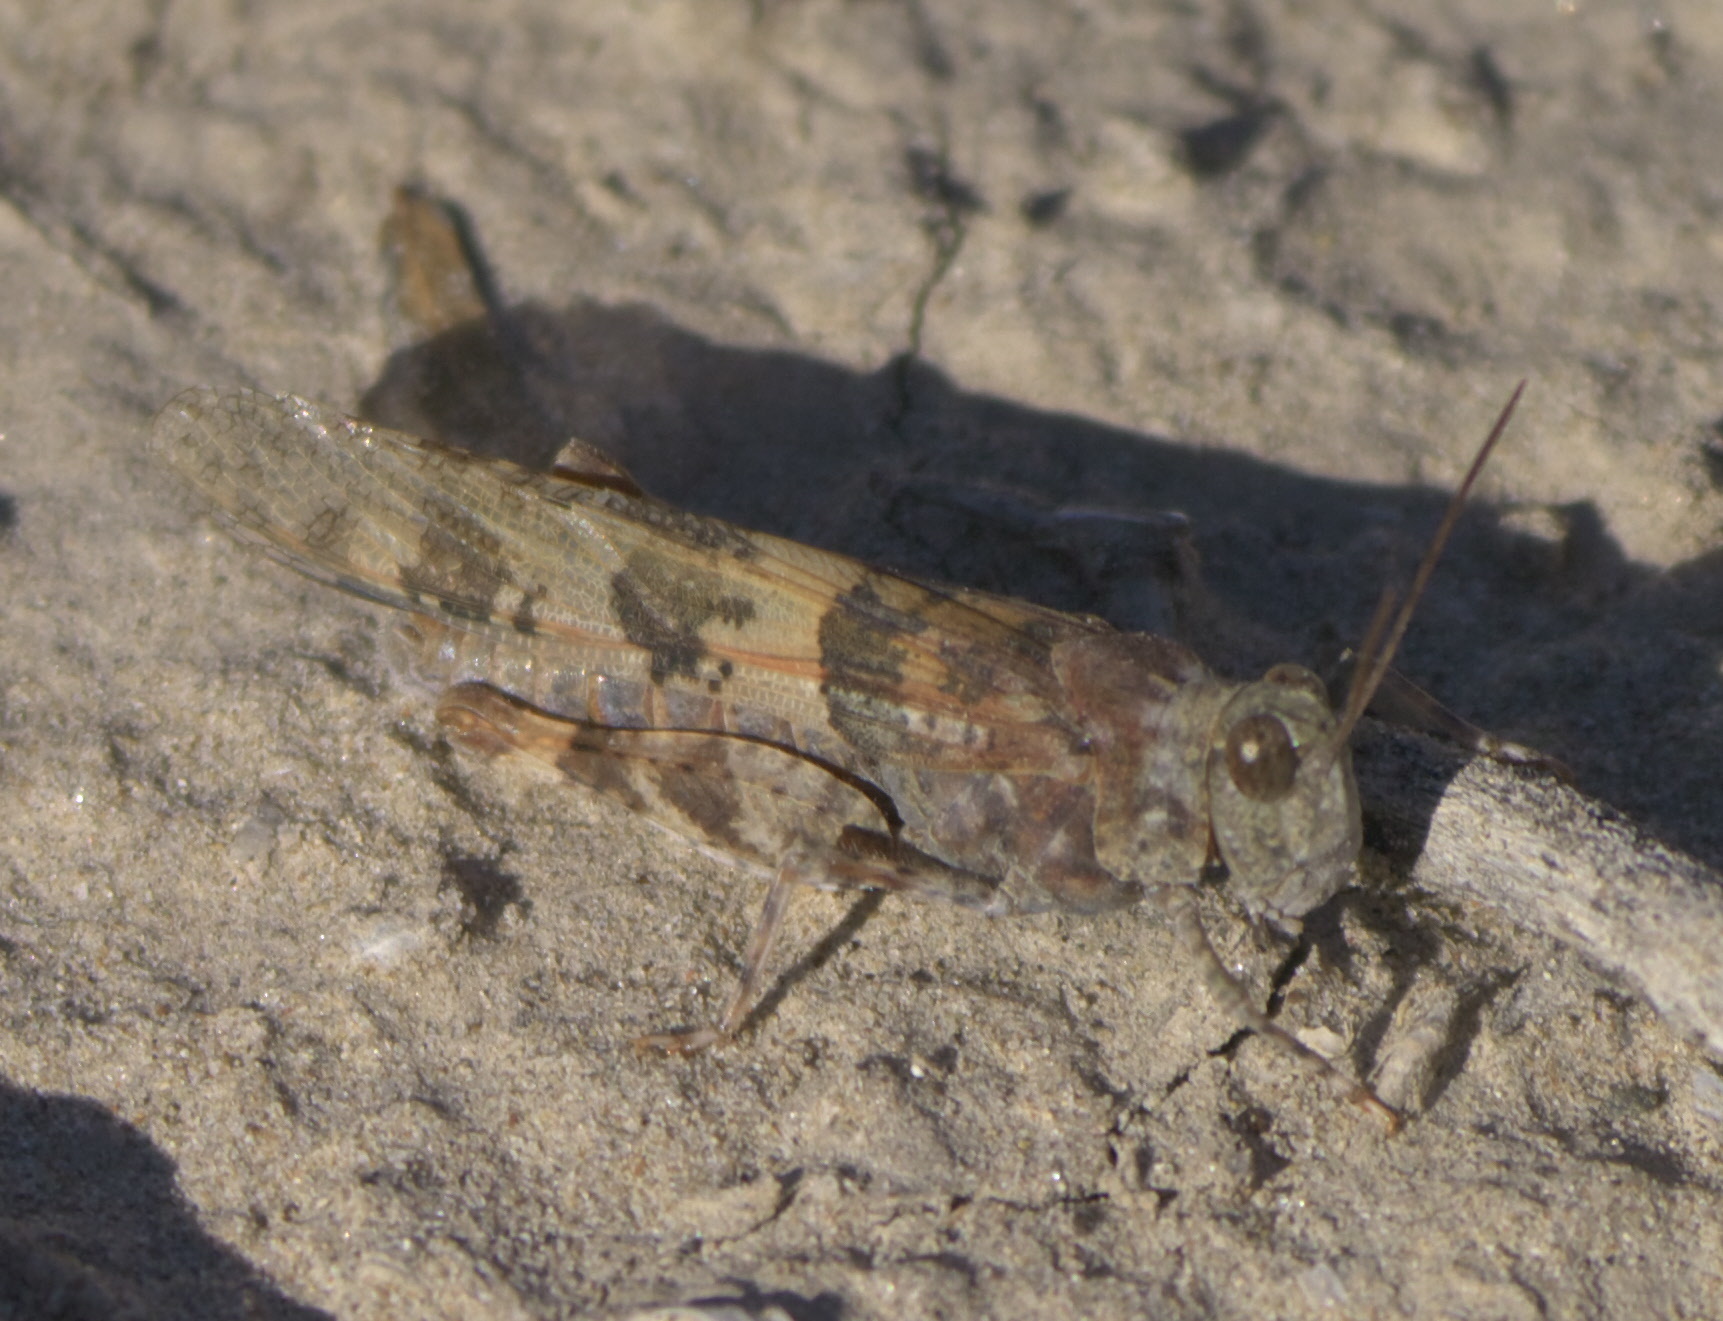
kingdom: Animalia
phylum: Arthropoda
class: Insecta
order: Orthoptera
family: Acrididae
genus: Trimerotropis
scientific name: Trimerotropis pallidipennis
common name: Pallid-winged grasshopper
